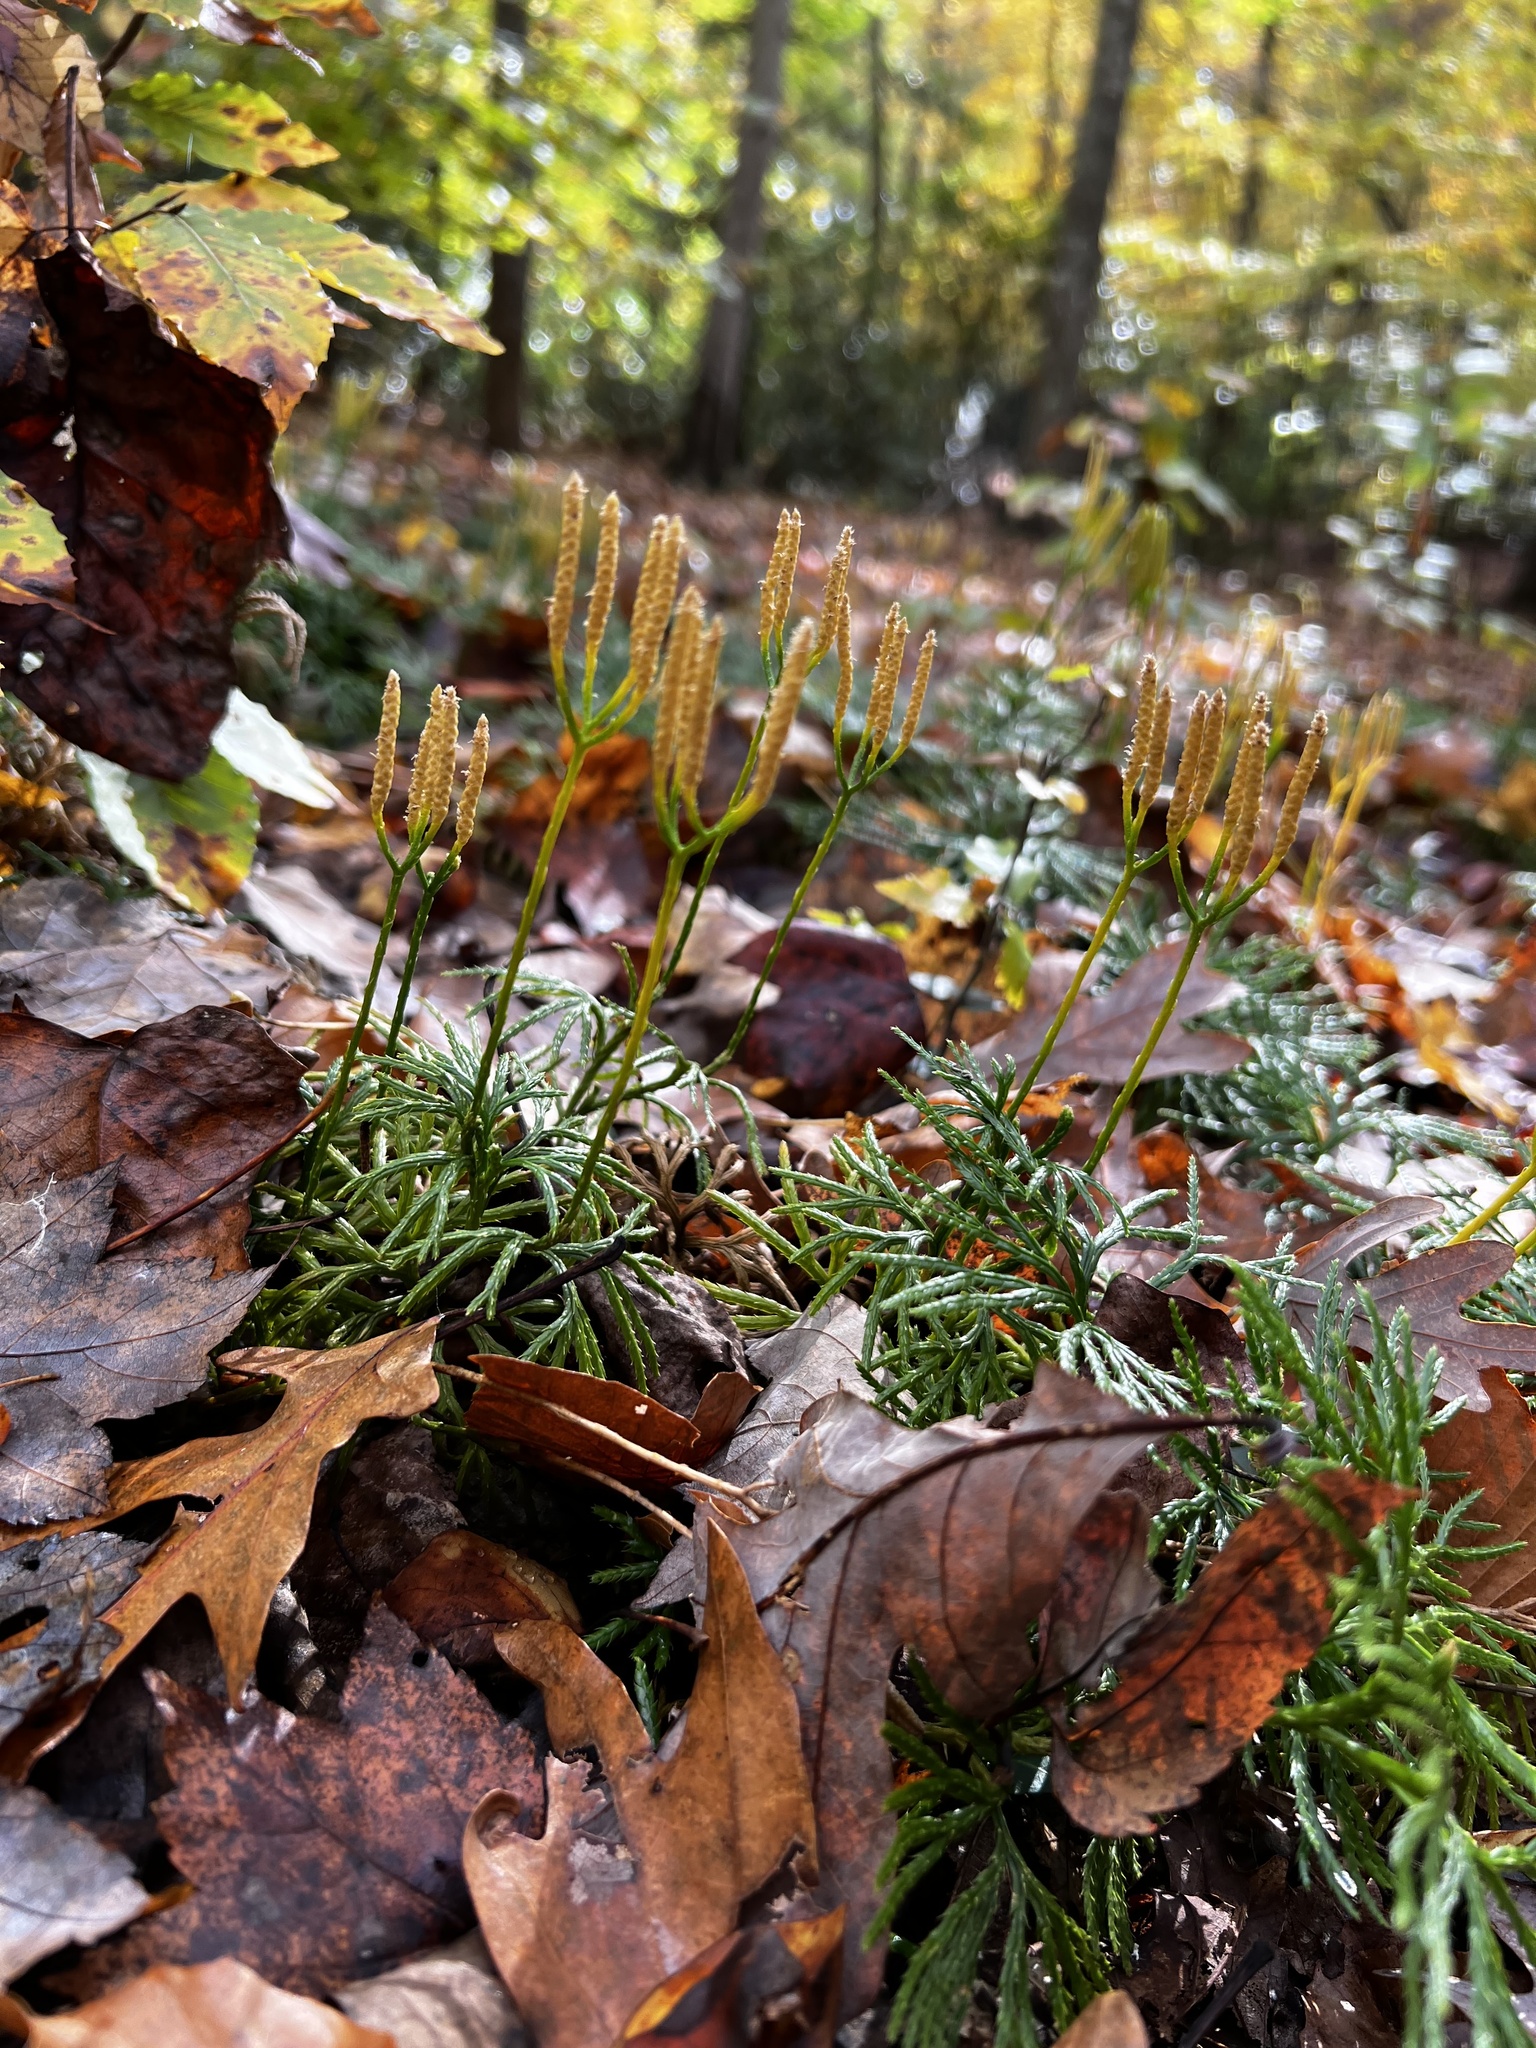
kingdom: Plantae
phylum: Tracheophyta
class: Lycopodiopsida
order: Lycopodiales
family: Lycopodiaceae
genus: Diphasiastrum
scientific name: Diphasiastrum digitatum
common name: Southern running-pine
